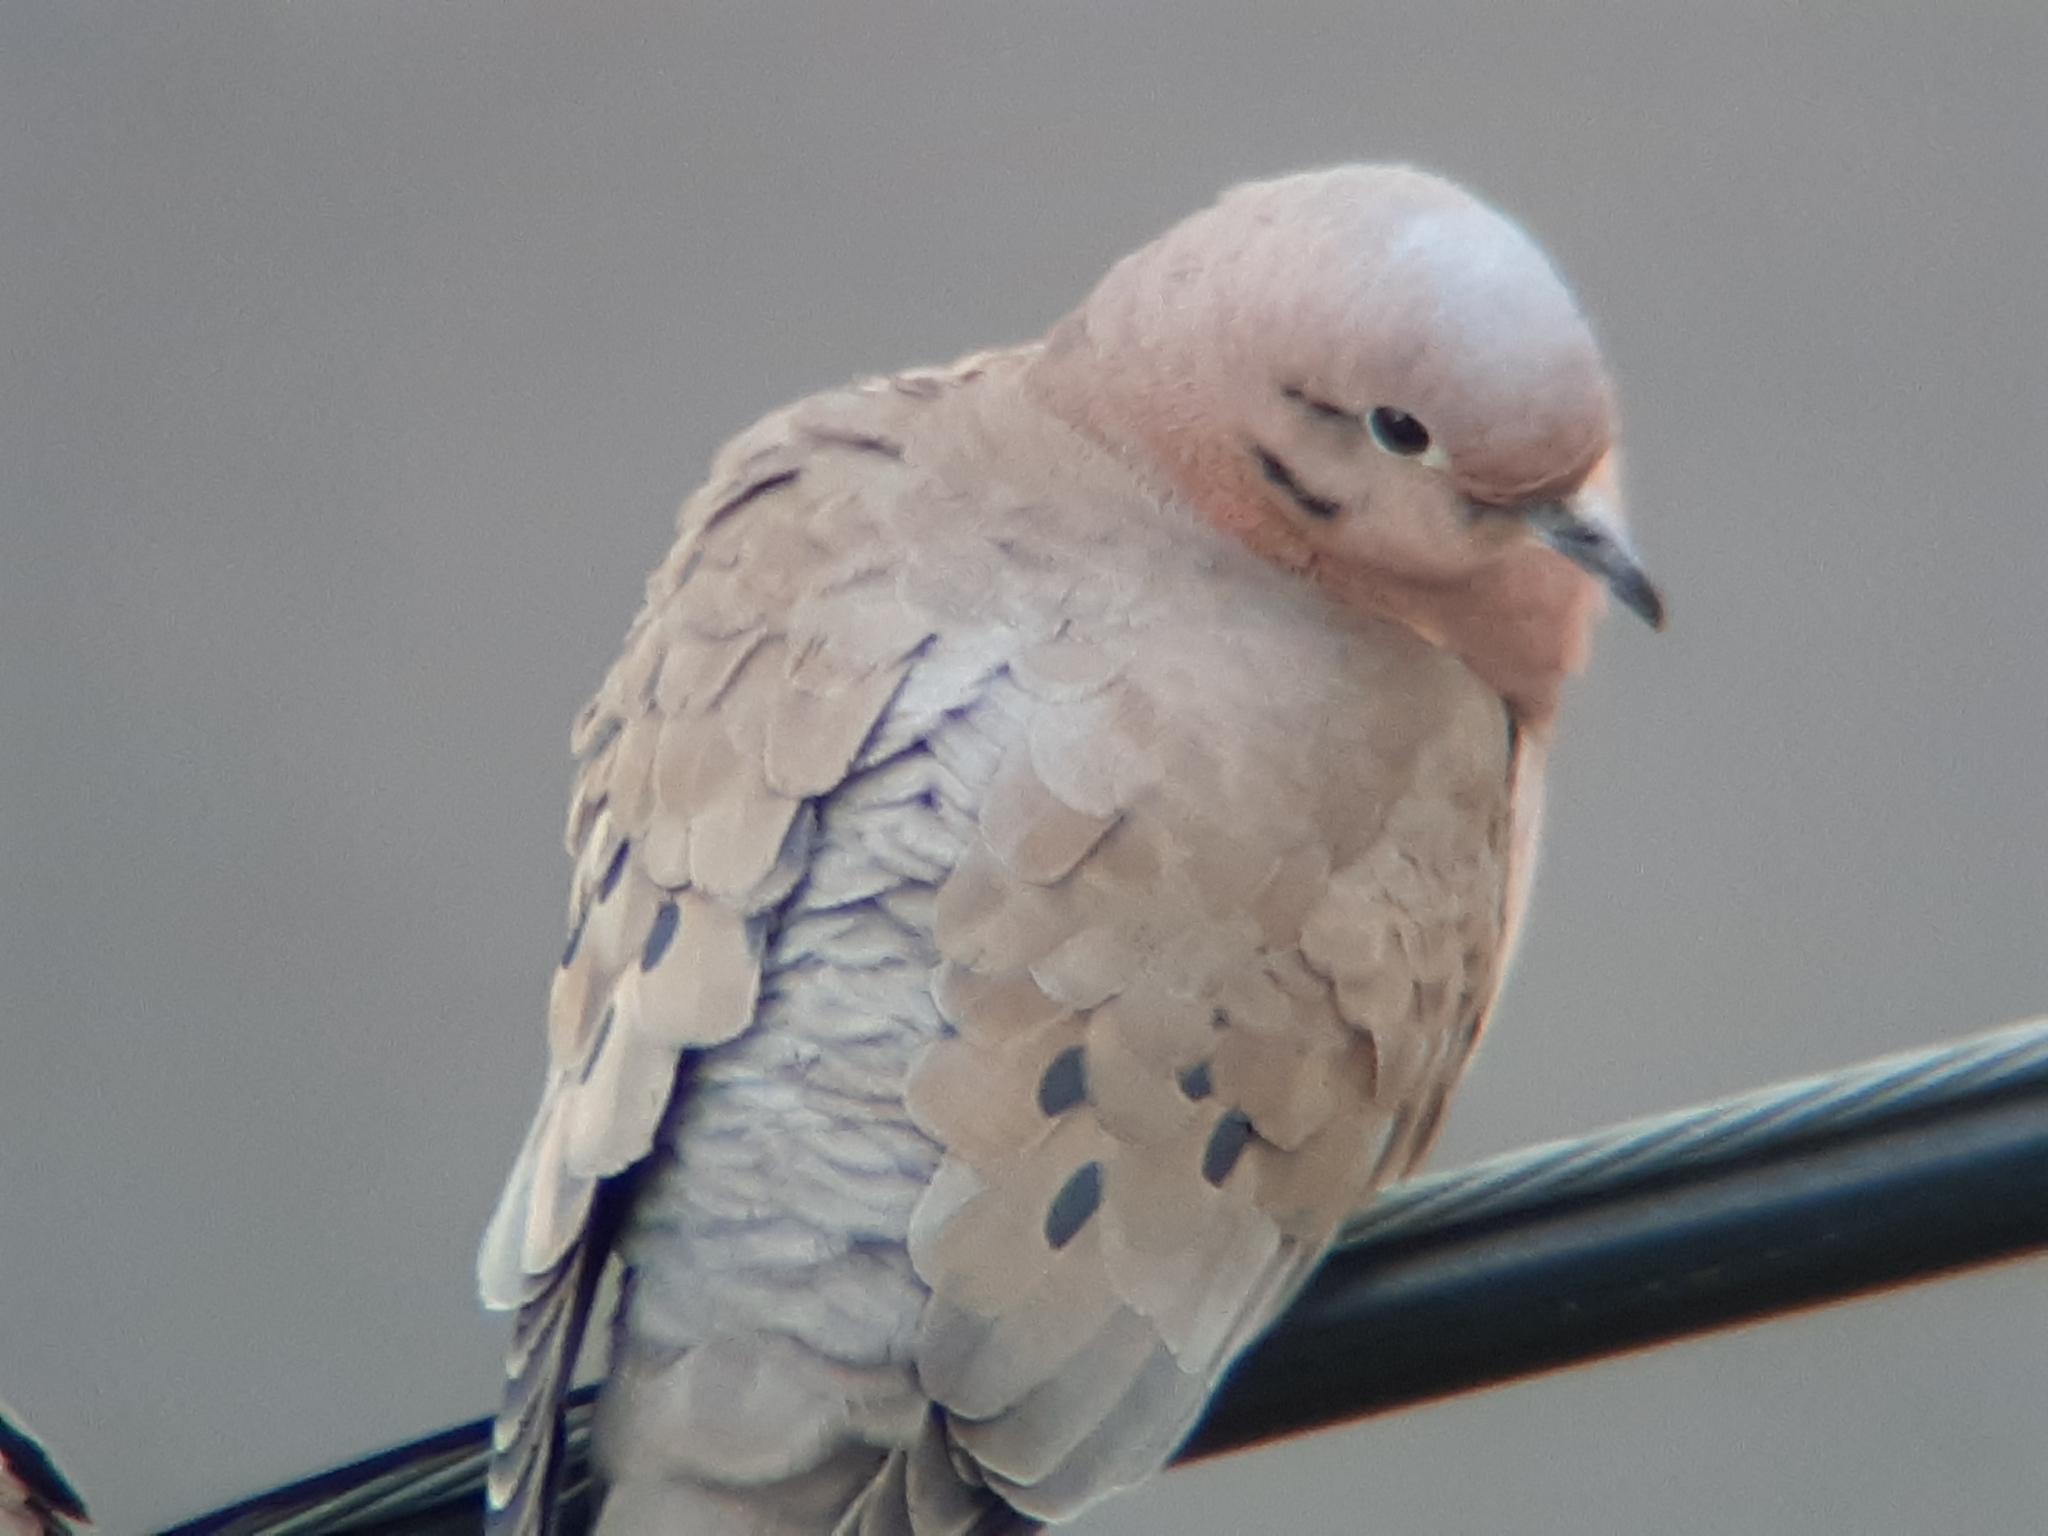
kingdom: Animalia
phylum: Chordata
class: Aves
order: Columbiformes
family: Columbidae
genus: Zenaida
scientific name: Zenaida auriculata
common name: Eared dove
